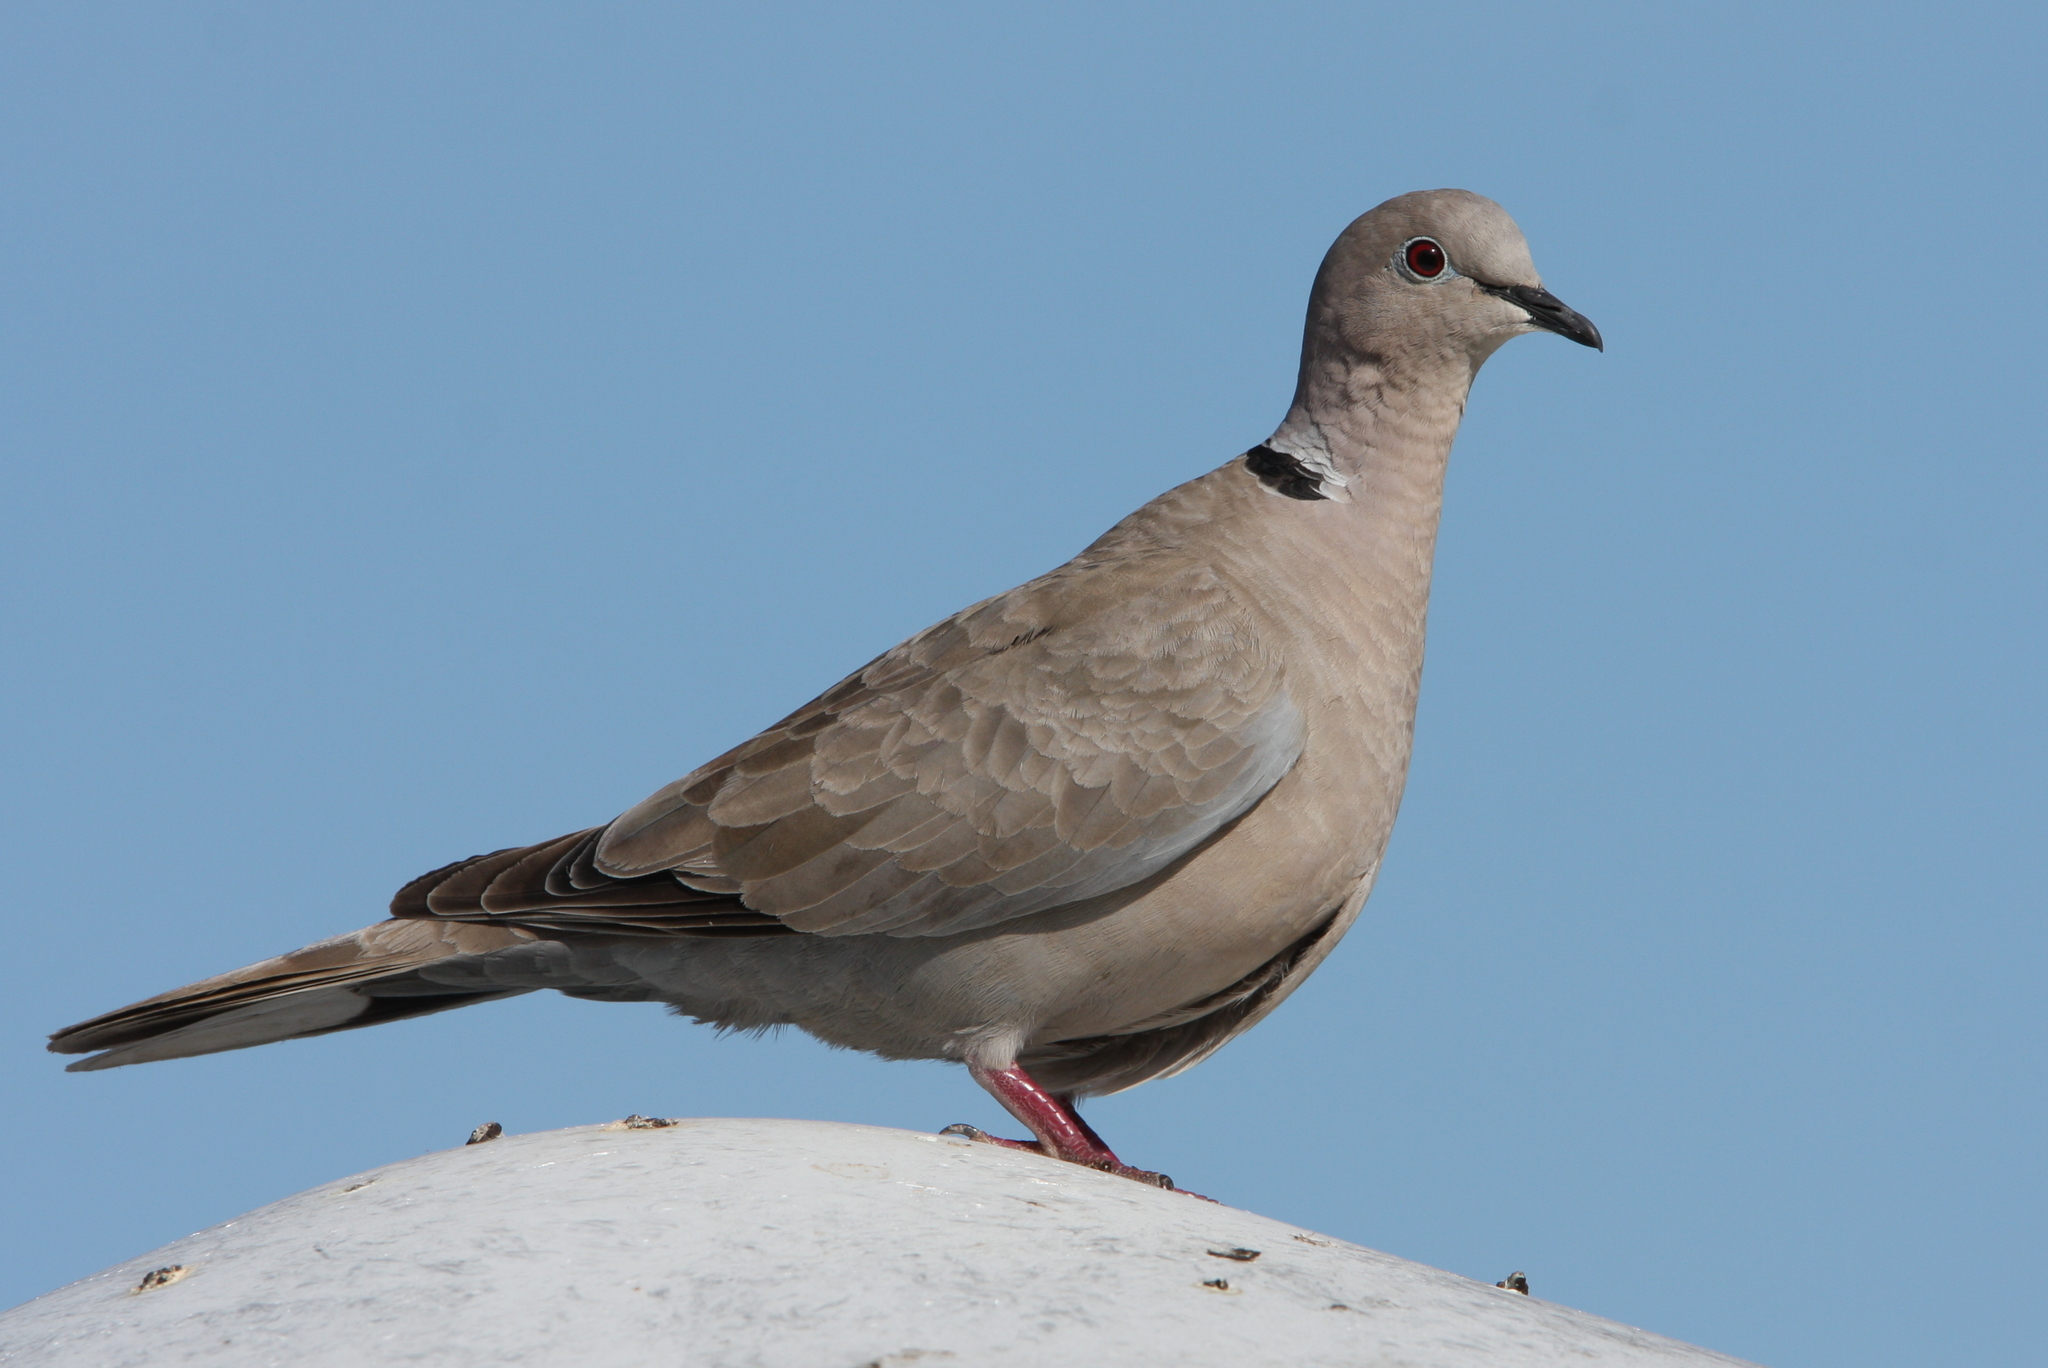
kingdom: Animalia
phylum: Chordata
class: Aves
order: Columbiformes
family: Columbidae
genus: Streptopelia
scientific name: Streptopelia decaocto
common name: Eurasian collared dove
